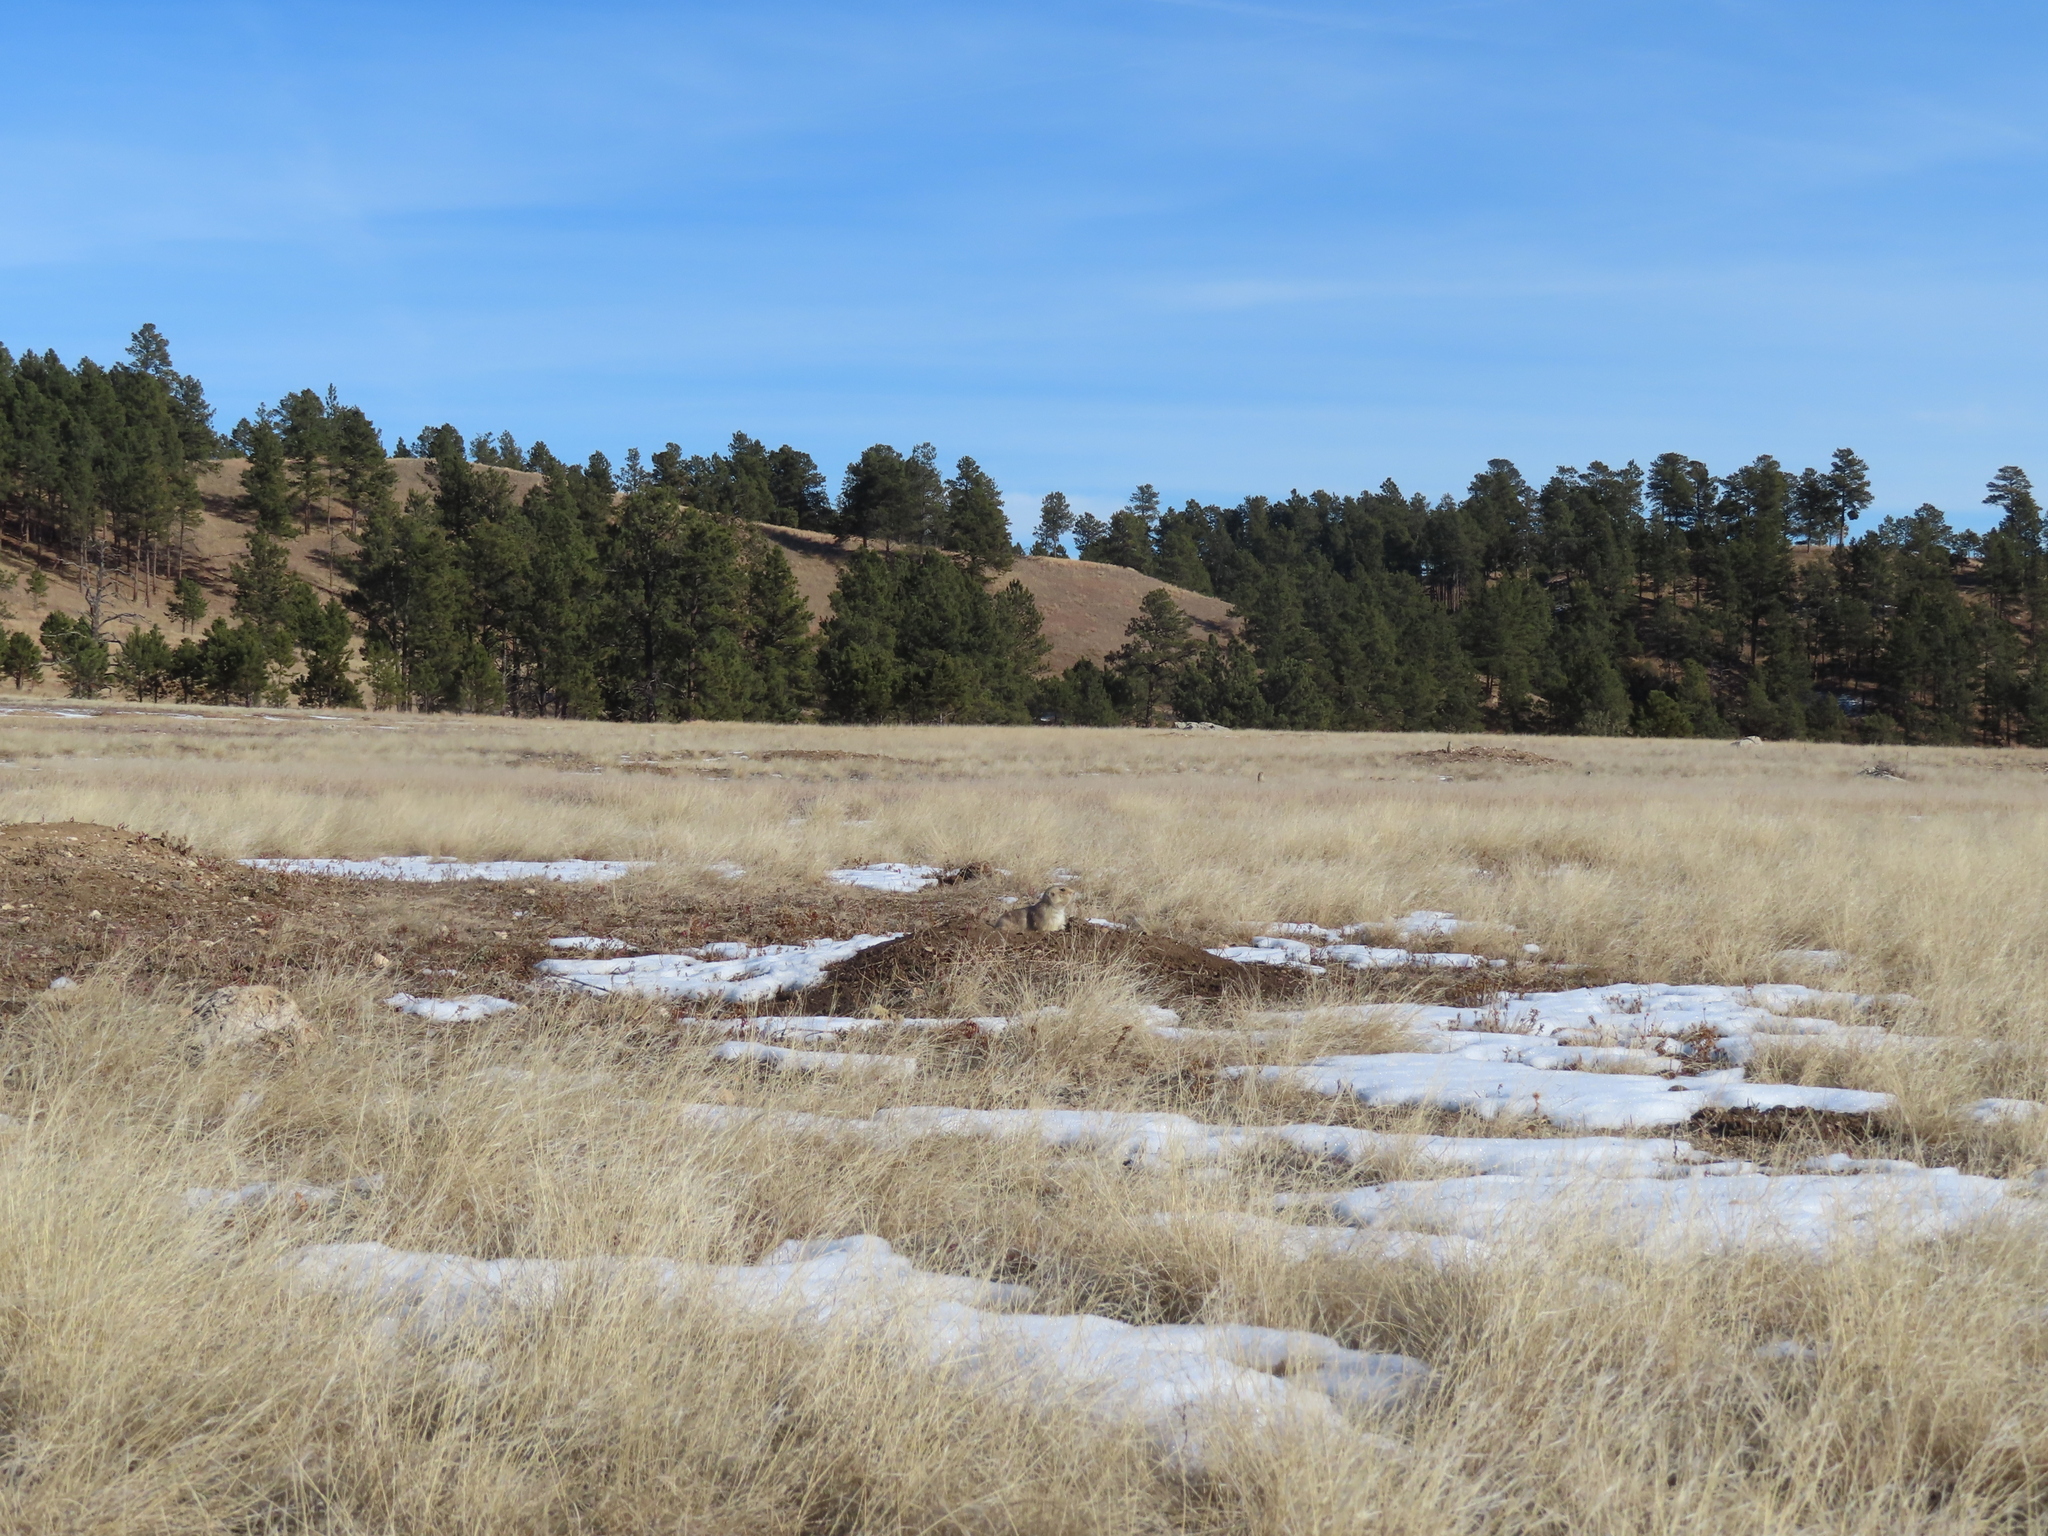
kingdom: Animalia
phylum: Chordata
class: Mammalia
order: Rodentia
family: Sciuridae
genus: Cynomys
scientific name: Cynomys ludovicianus
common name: Black-tailed prairie dog
